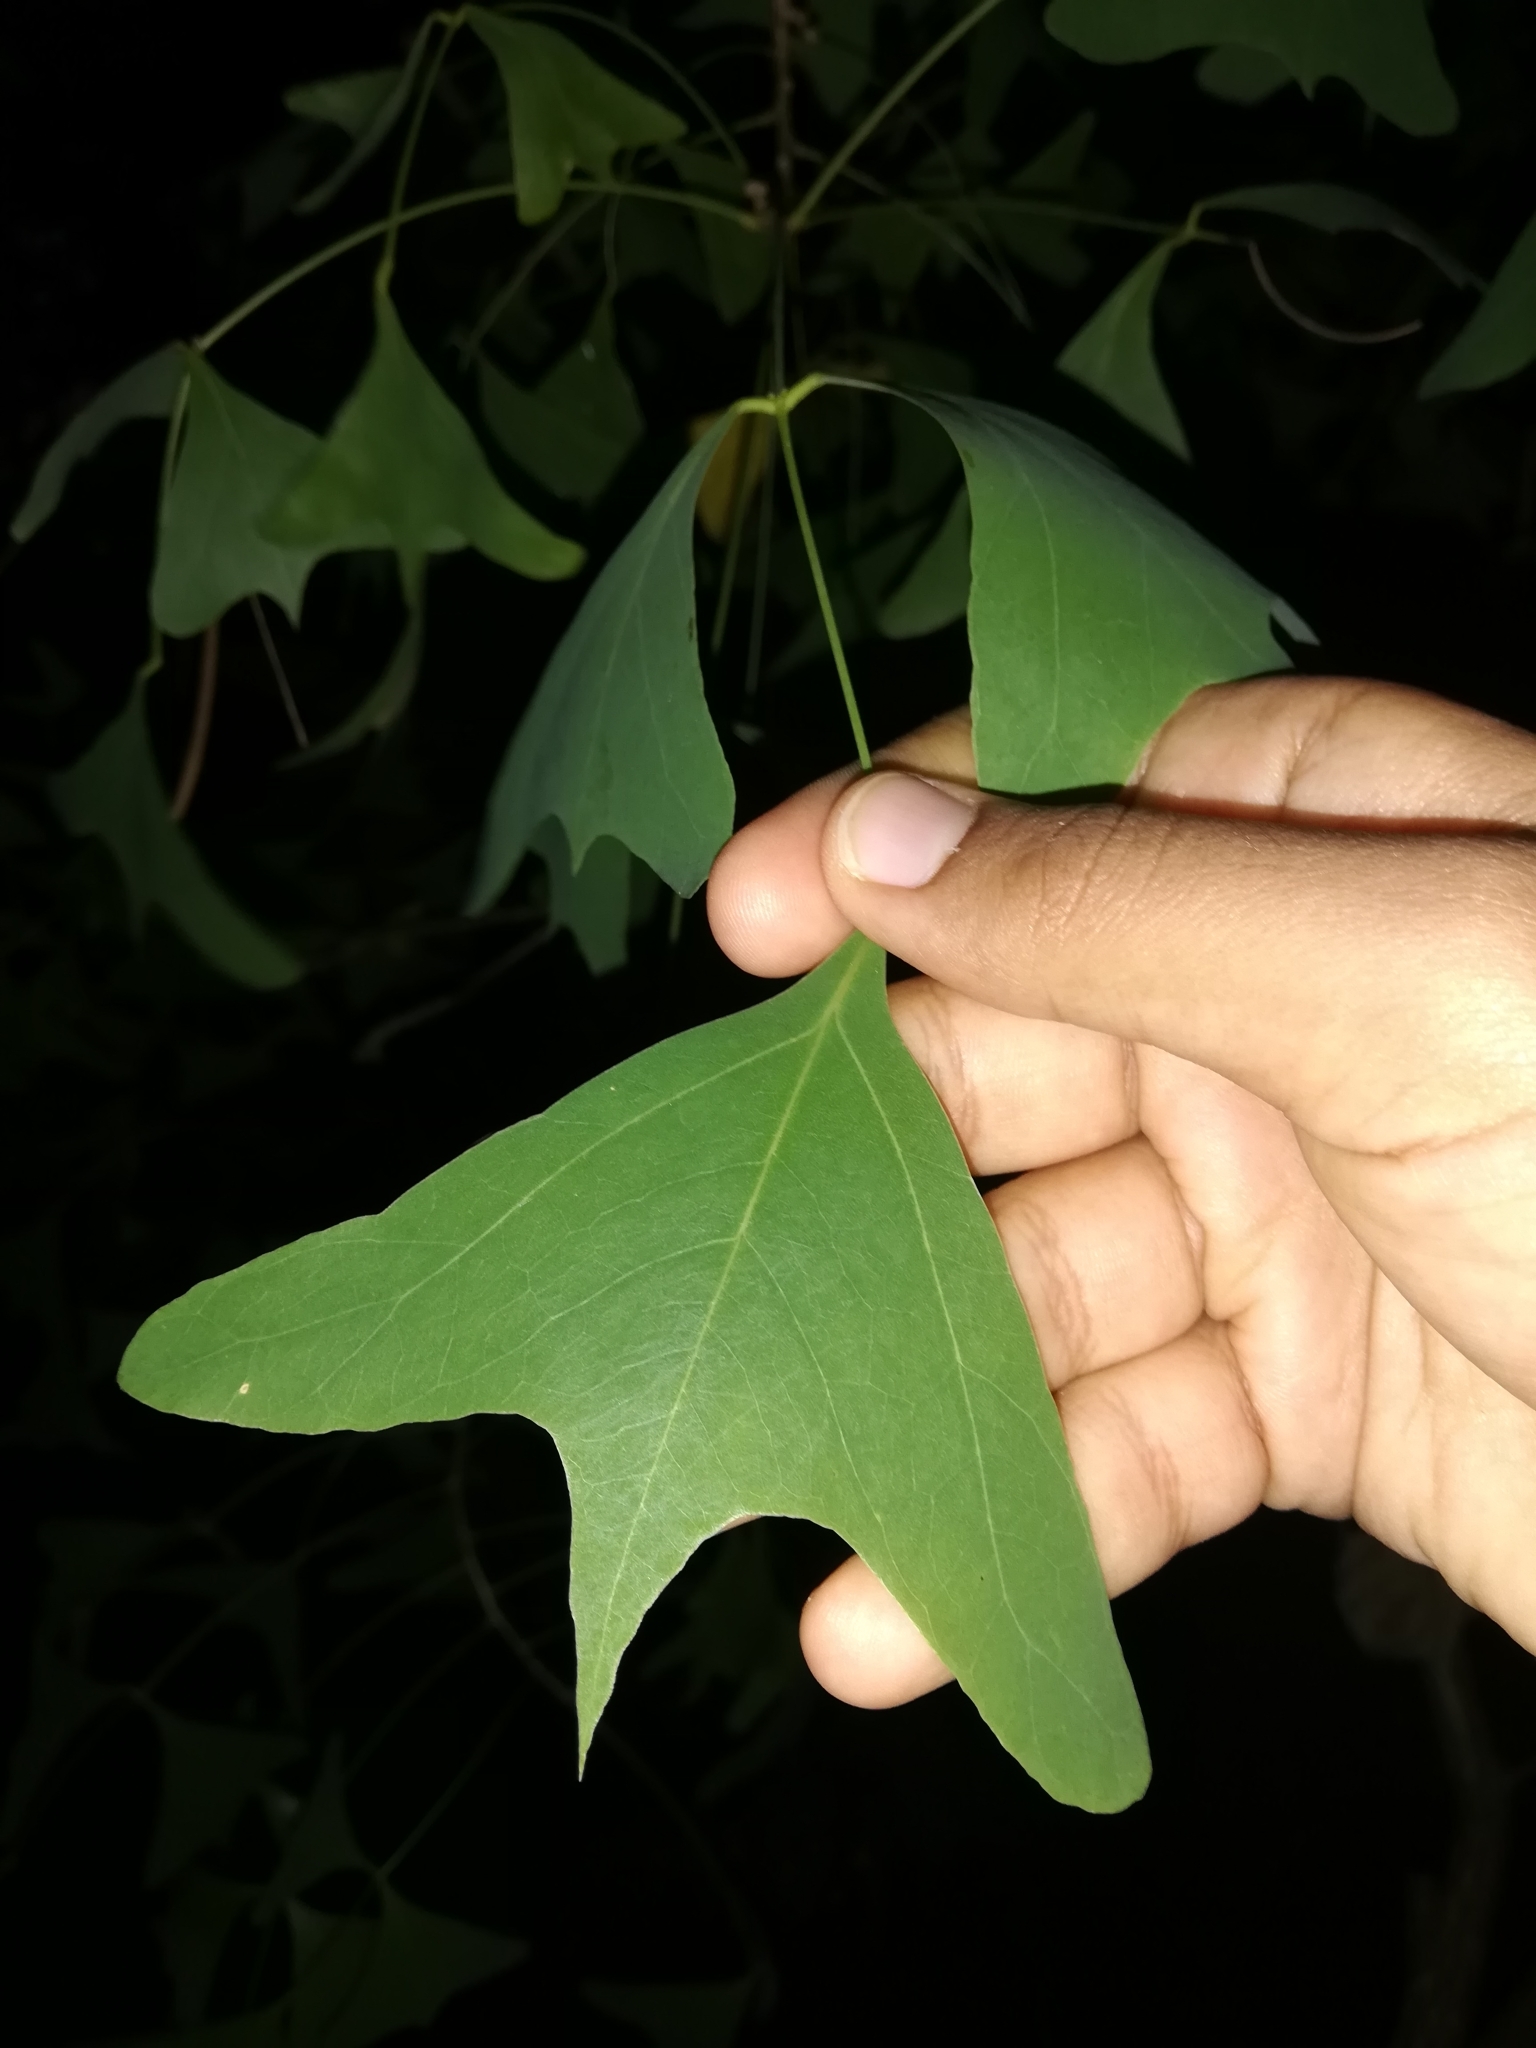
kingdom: Plantae
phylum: Tracheophyta
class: Magnoliopsida
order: Fabales
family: Fabaceae
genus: Erythrina
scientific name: Erythrina vespertilio
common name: Bat-wing coral tree
